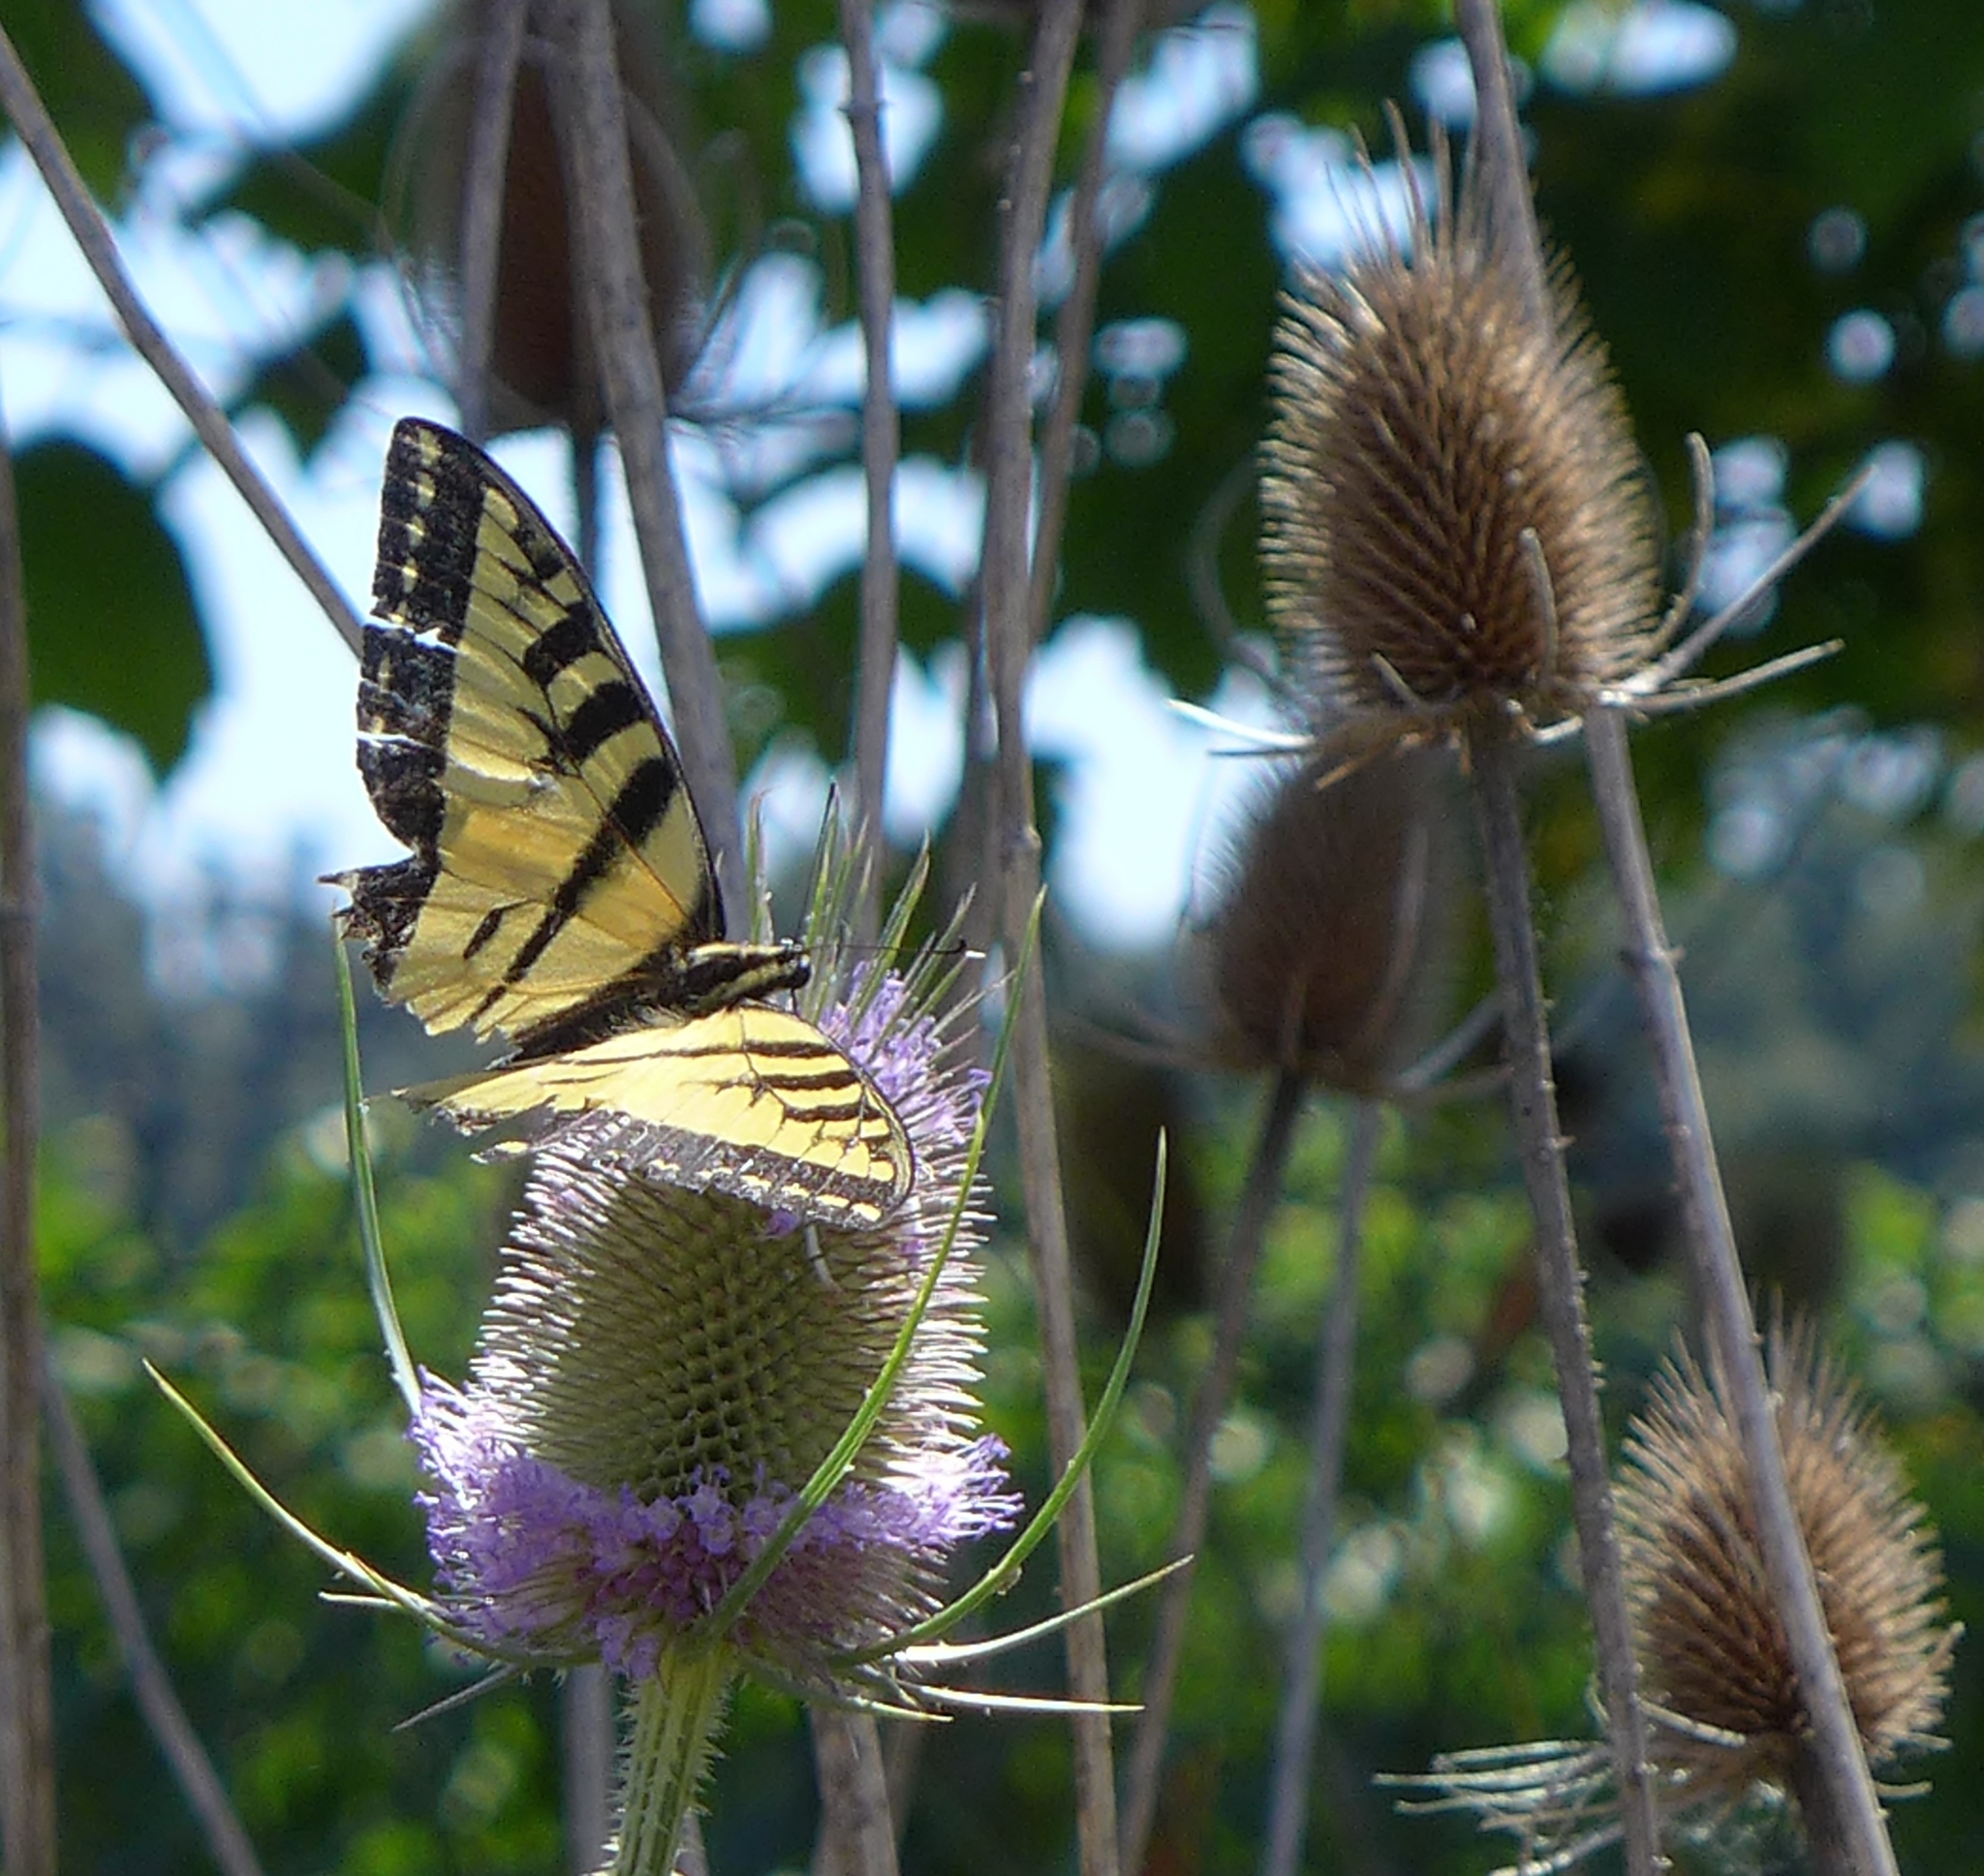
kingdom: Animalia
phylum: Arthropoda
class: Insecta
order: Lepidoptera
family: Papilionidae
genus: Papilio
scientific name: Papilio rutulus
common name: Western tiger swallowtail
